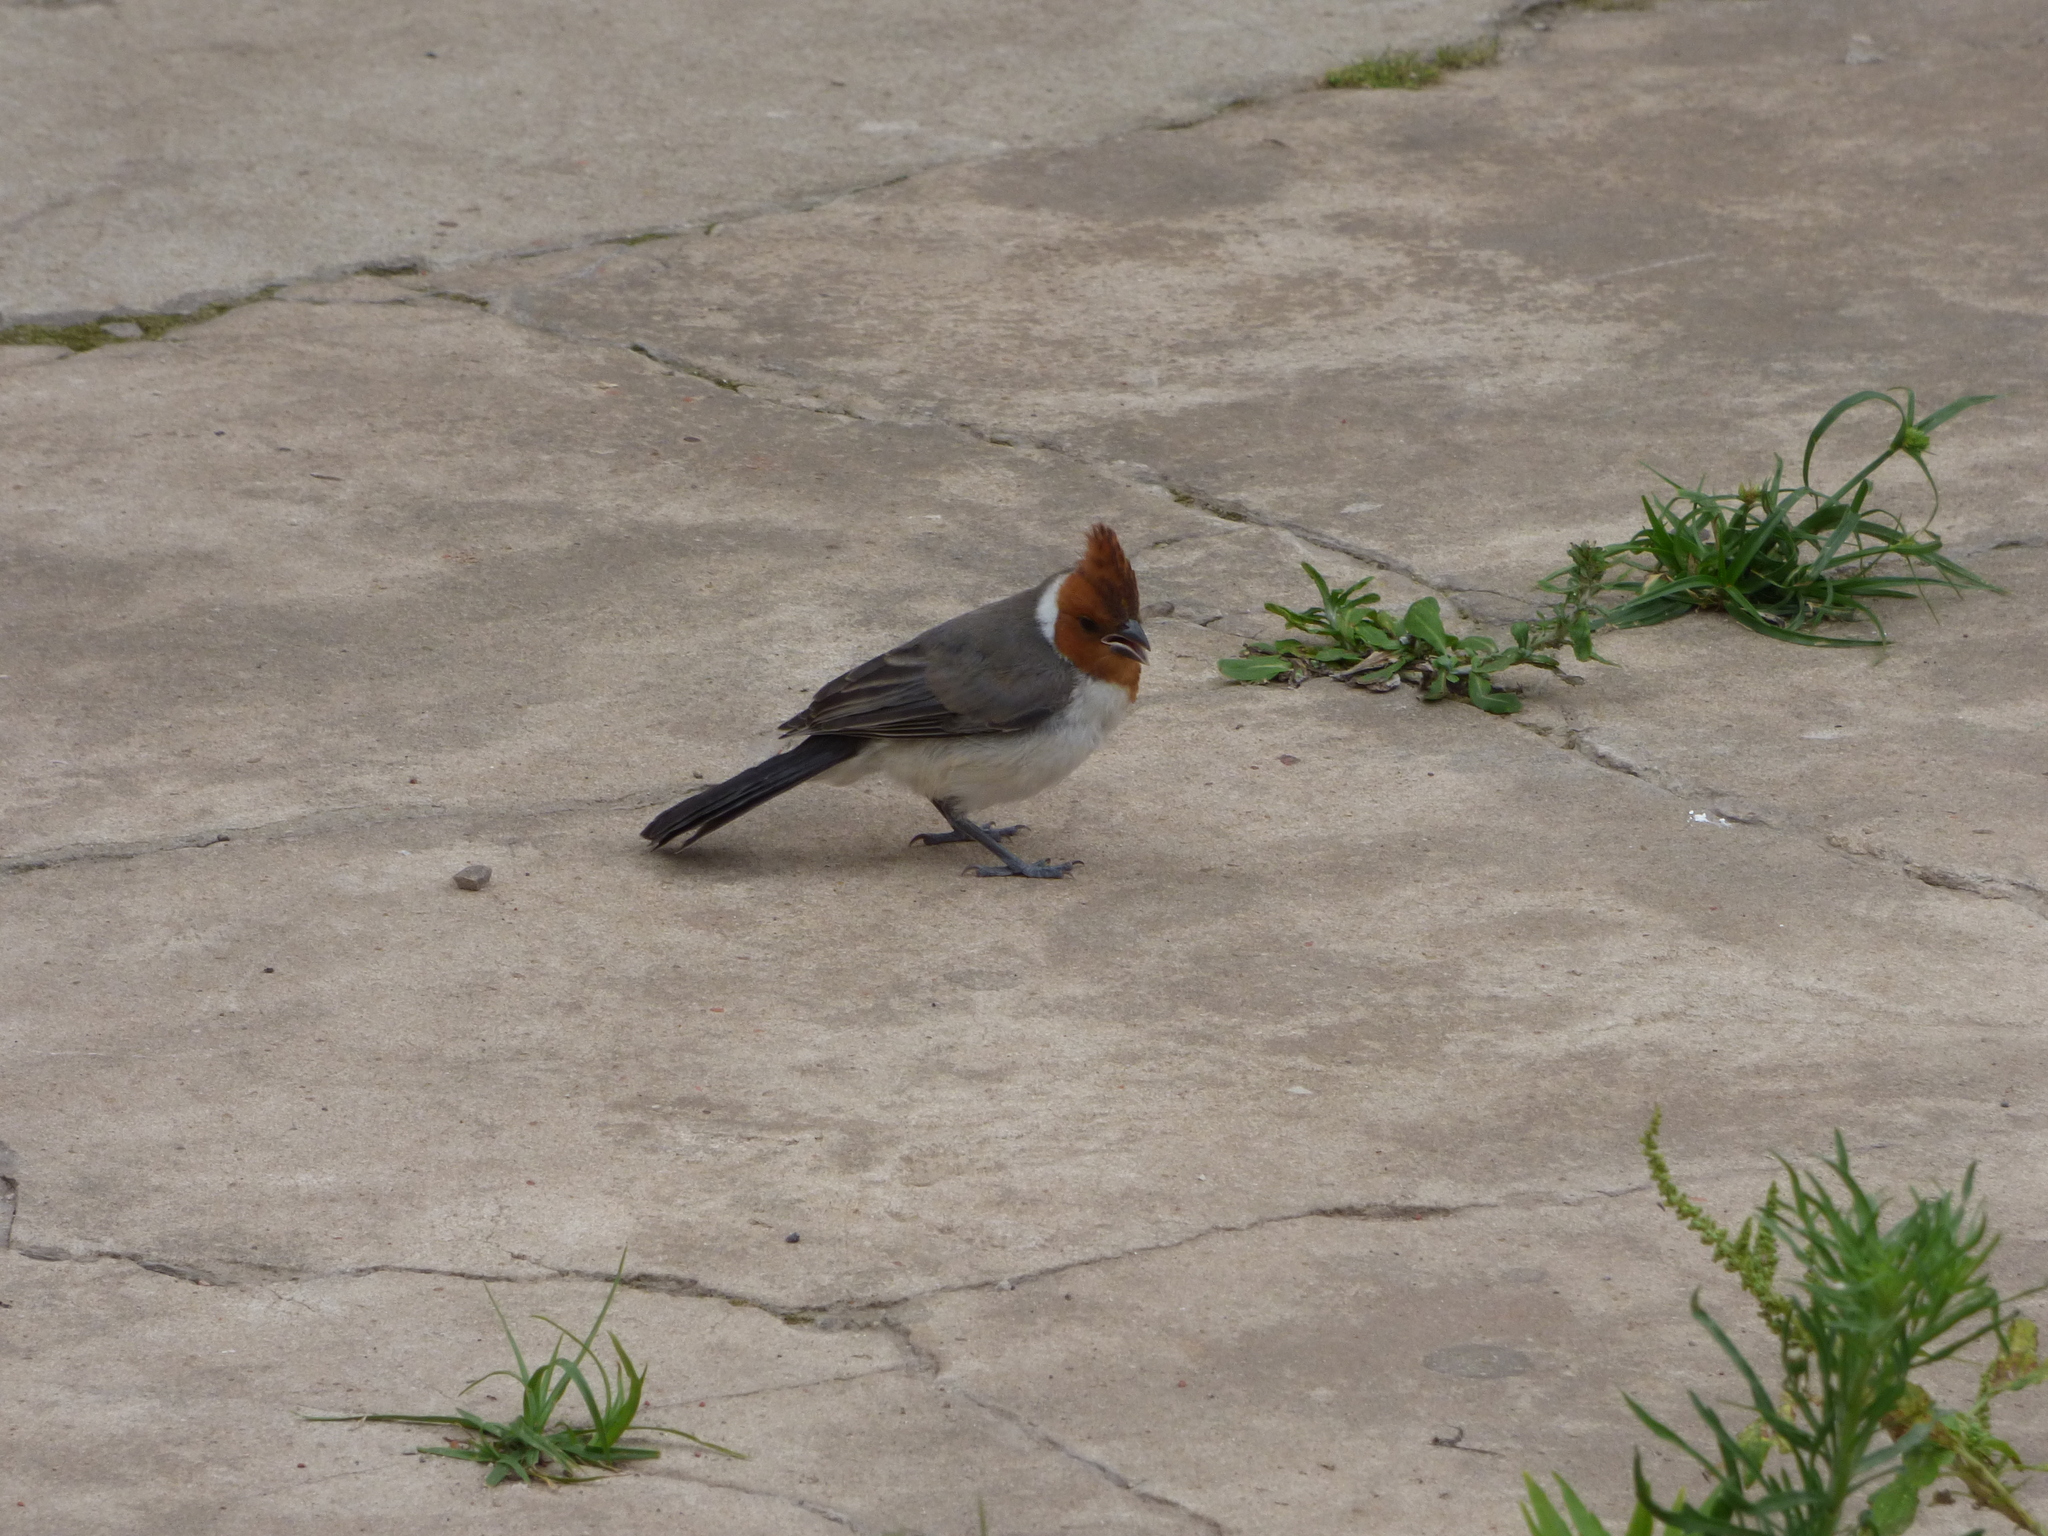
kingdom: Animalia
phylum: Chordata
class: Aves
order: Passeriformes
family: Thraupidae
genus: Paroaria
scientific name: Paroaria coronata
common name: Red-crested cardinal
